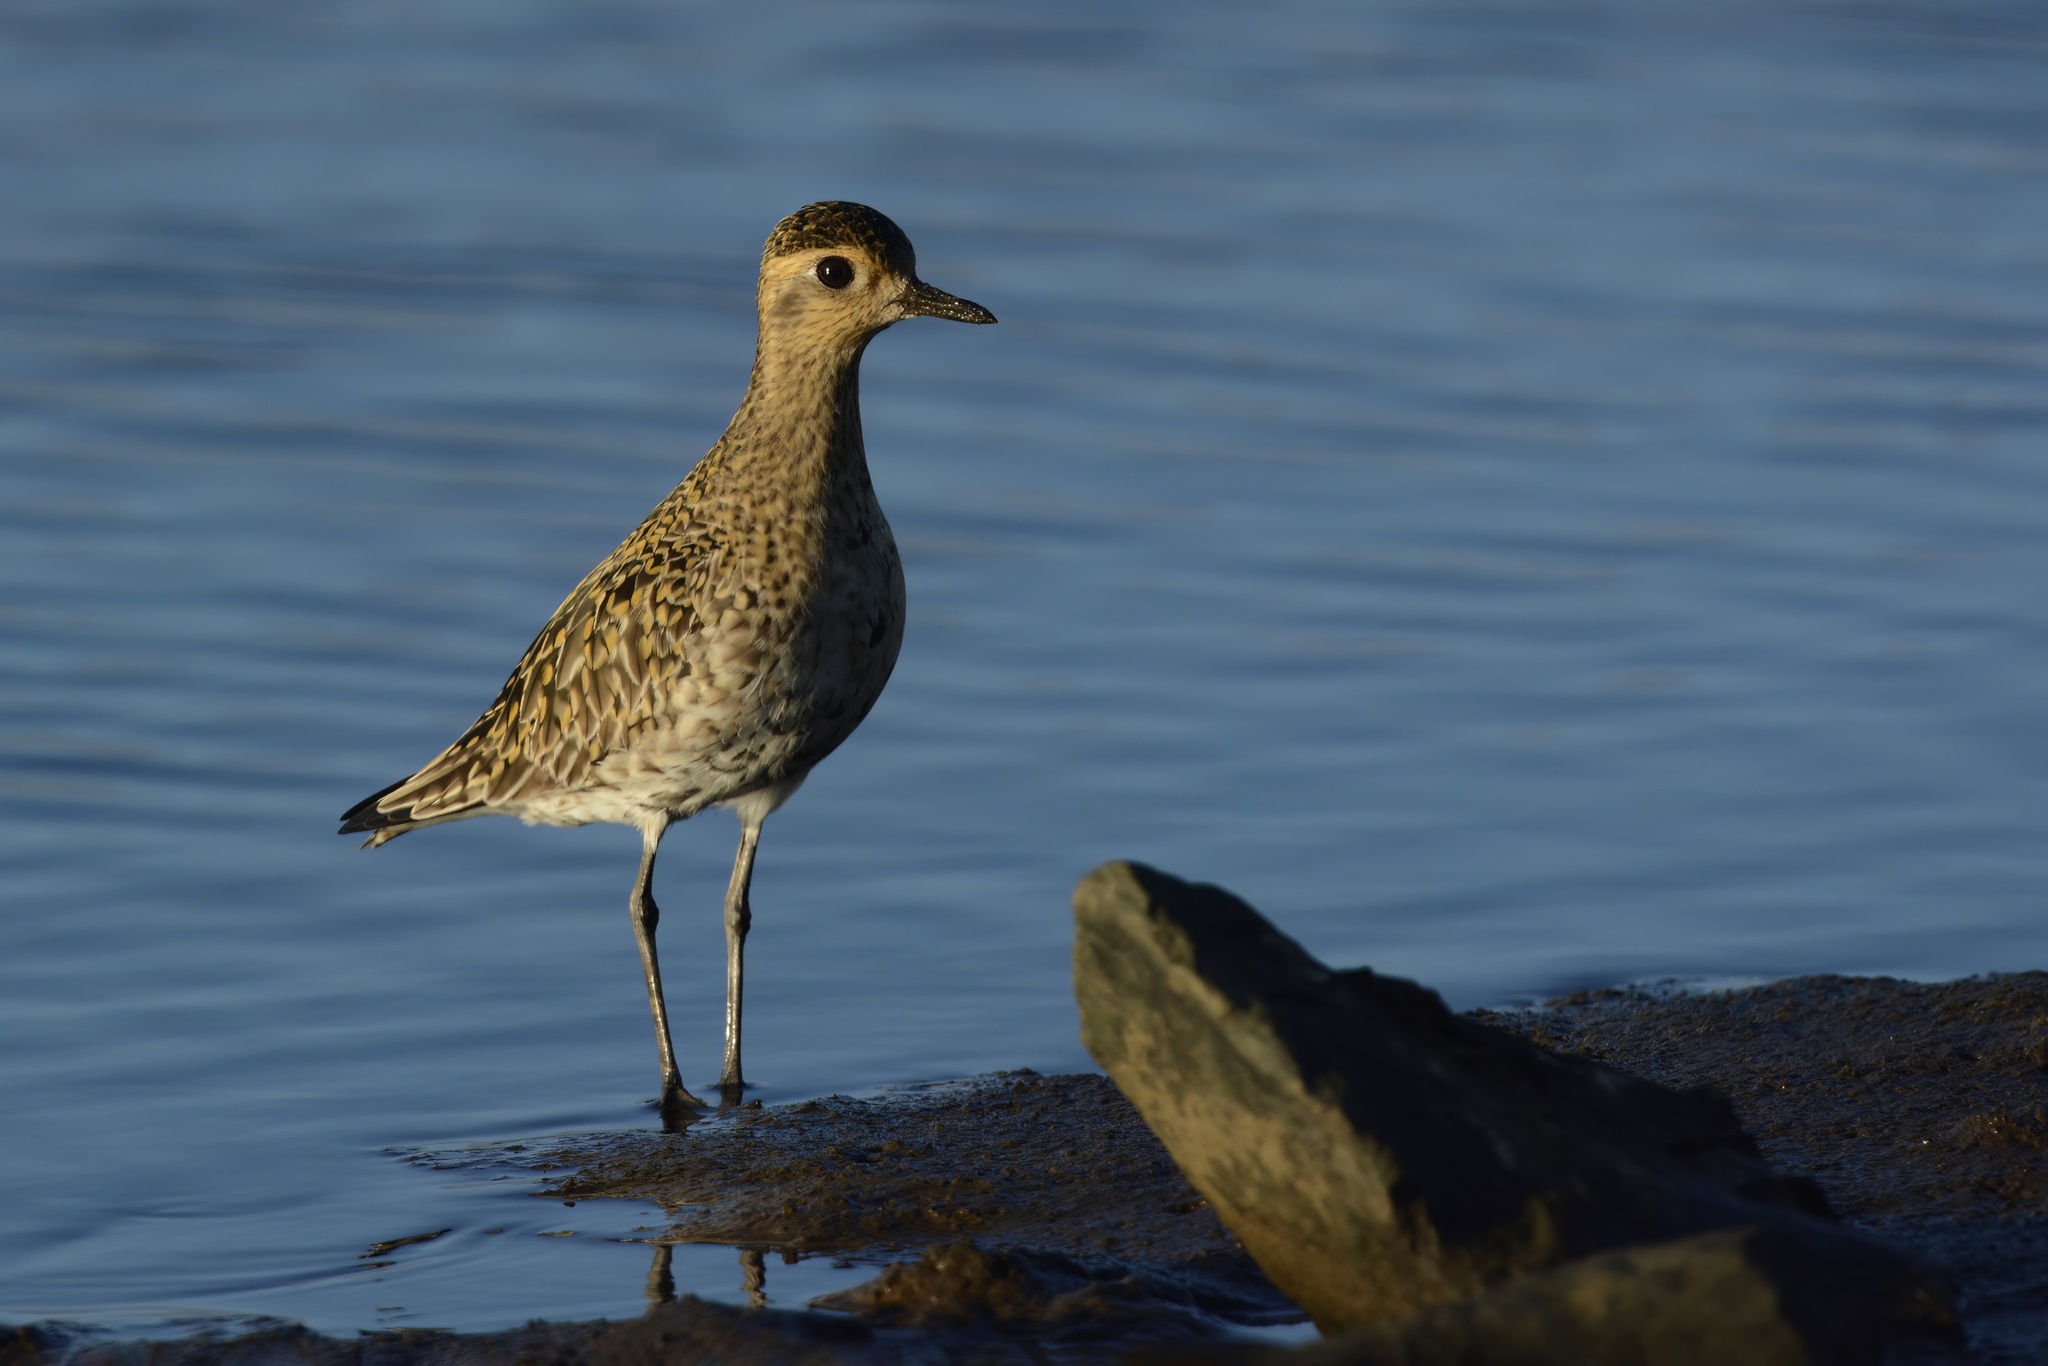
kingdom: Animalia
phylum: Chordata
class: Aves
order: Charadriiformes
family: Charadriidae
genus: Pluvialis
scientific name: Pluvialis fulva
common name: Pacific golden plover
